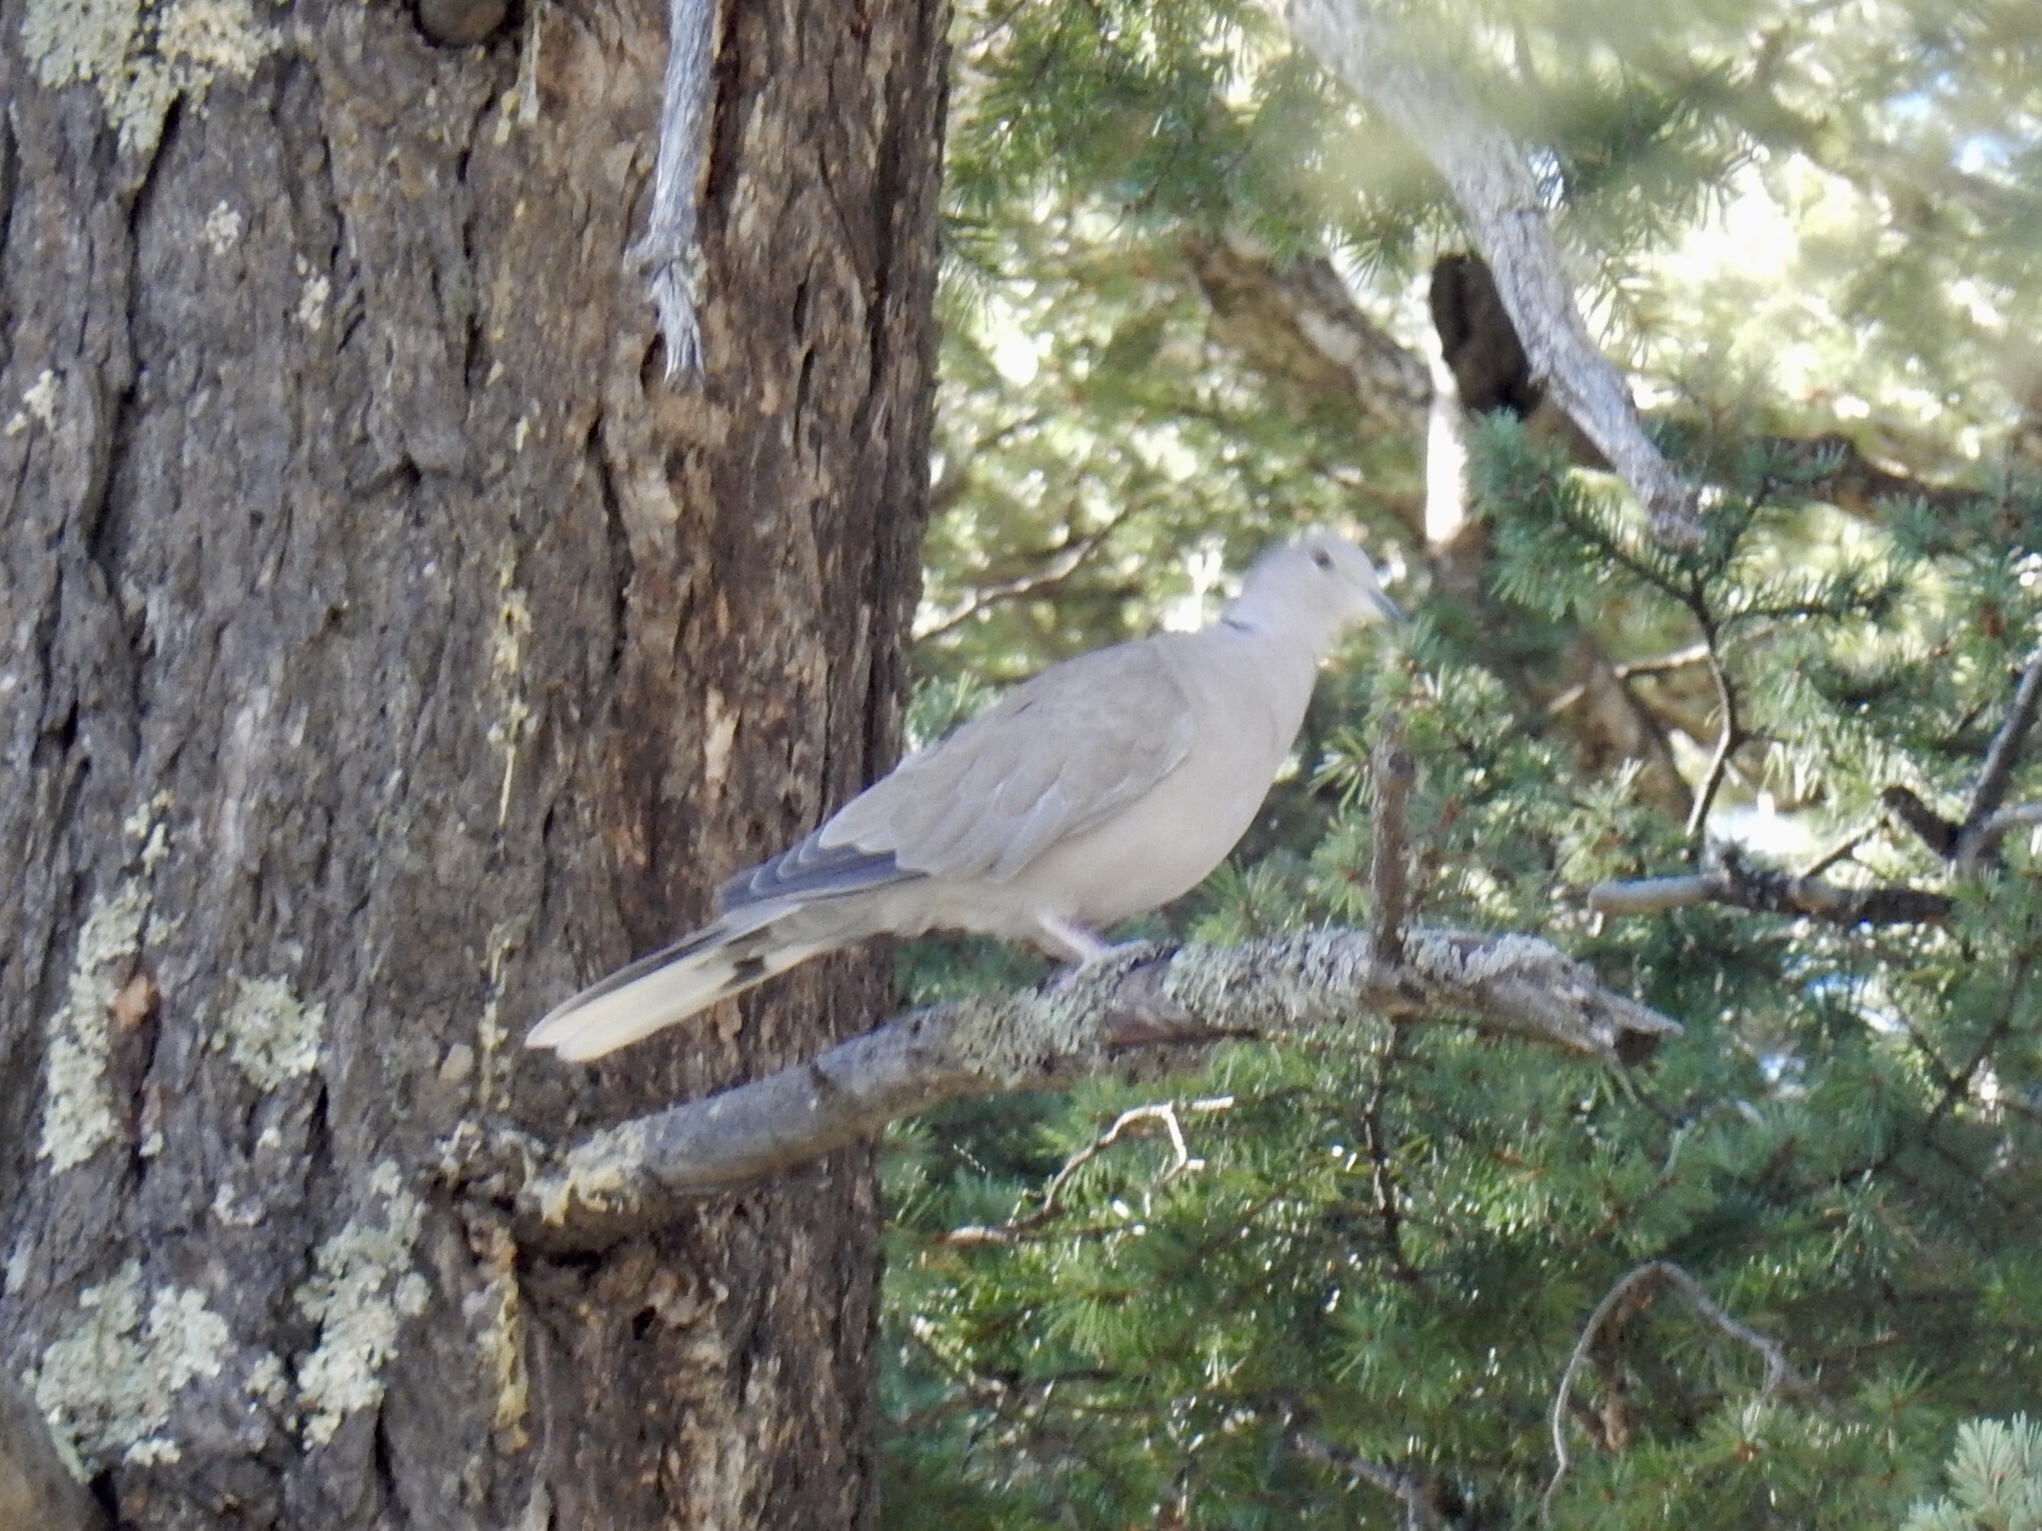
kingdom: Animalia
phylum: Chordata
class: Aves
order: Columbiformes
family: Columbidae
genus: Streptopelia
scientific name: Streptopelia decaocto
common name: Eurasian collared dove
